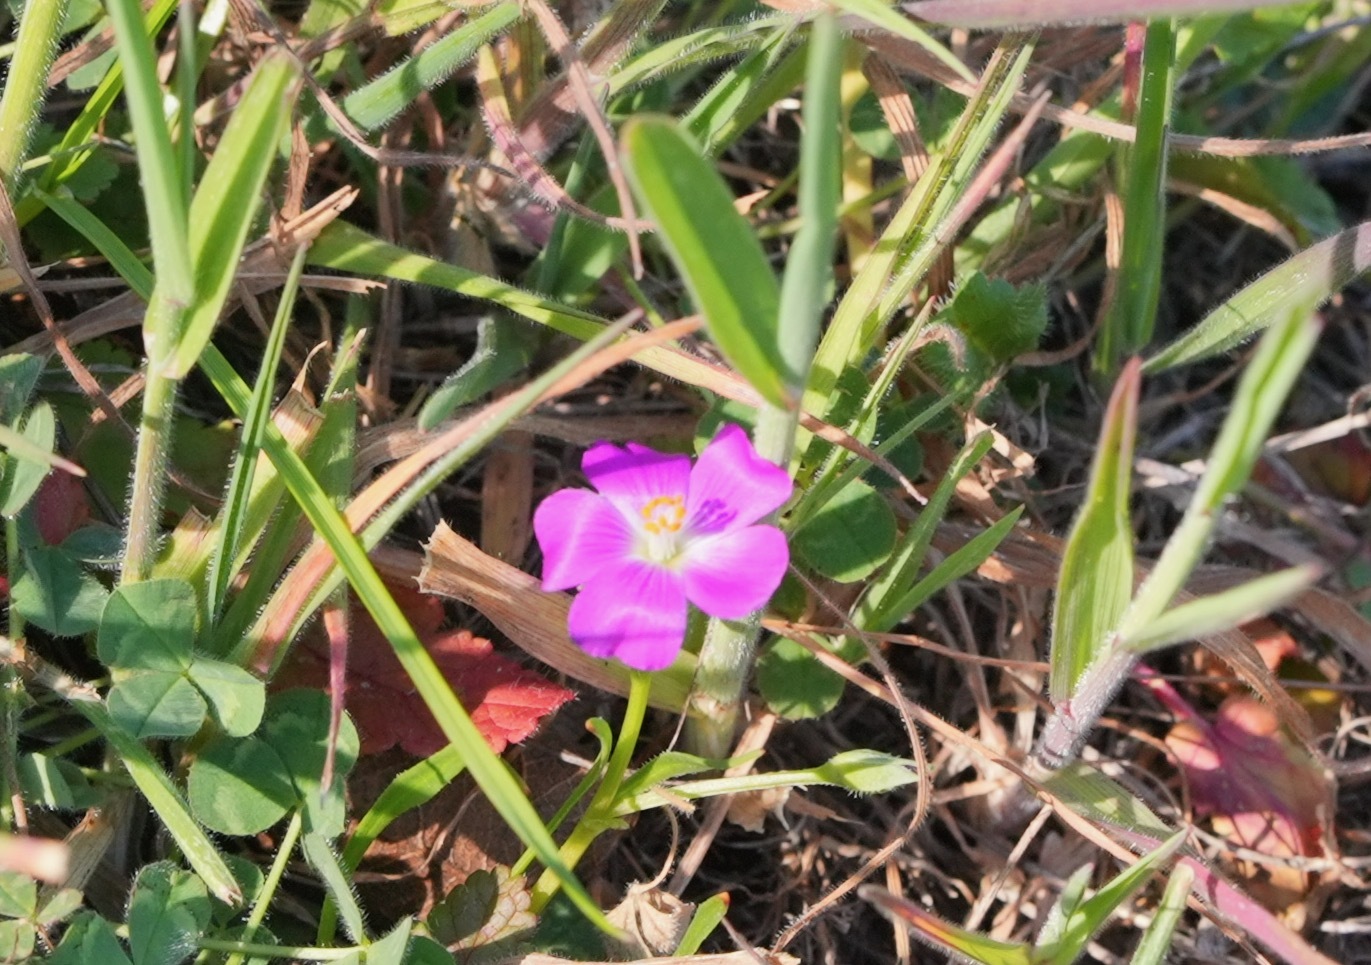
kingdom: Plantae
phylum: Tracheophyta
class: Magnoliopsida
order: Caryophyllales
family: Montiaceae
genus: Calandrinia
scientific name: Calandrinia menziesii
